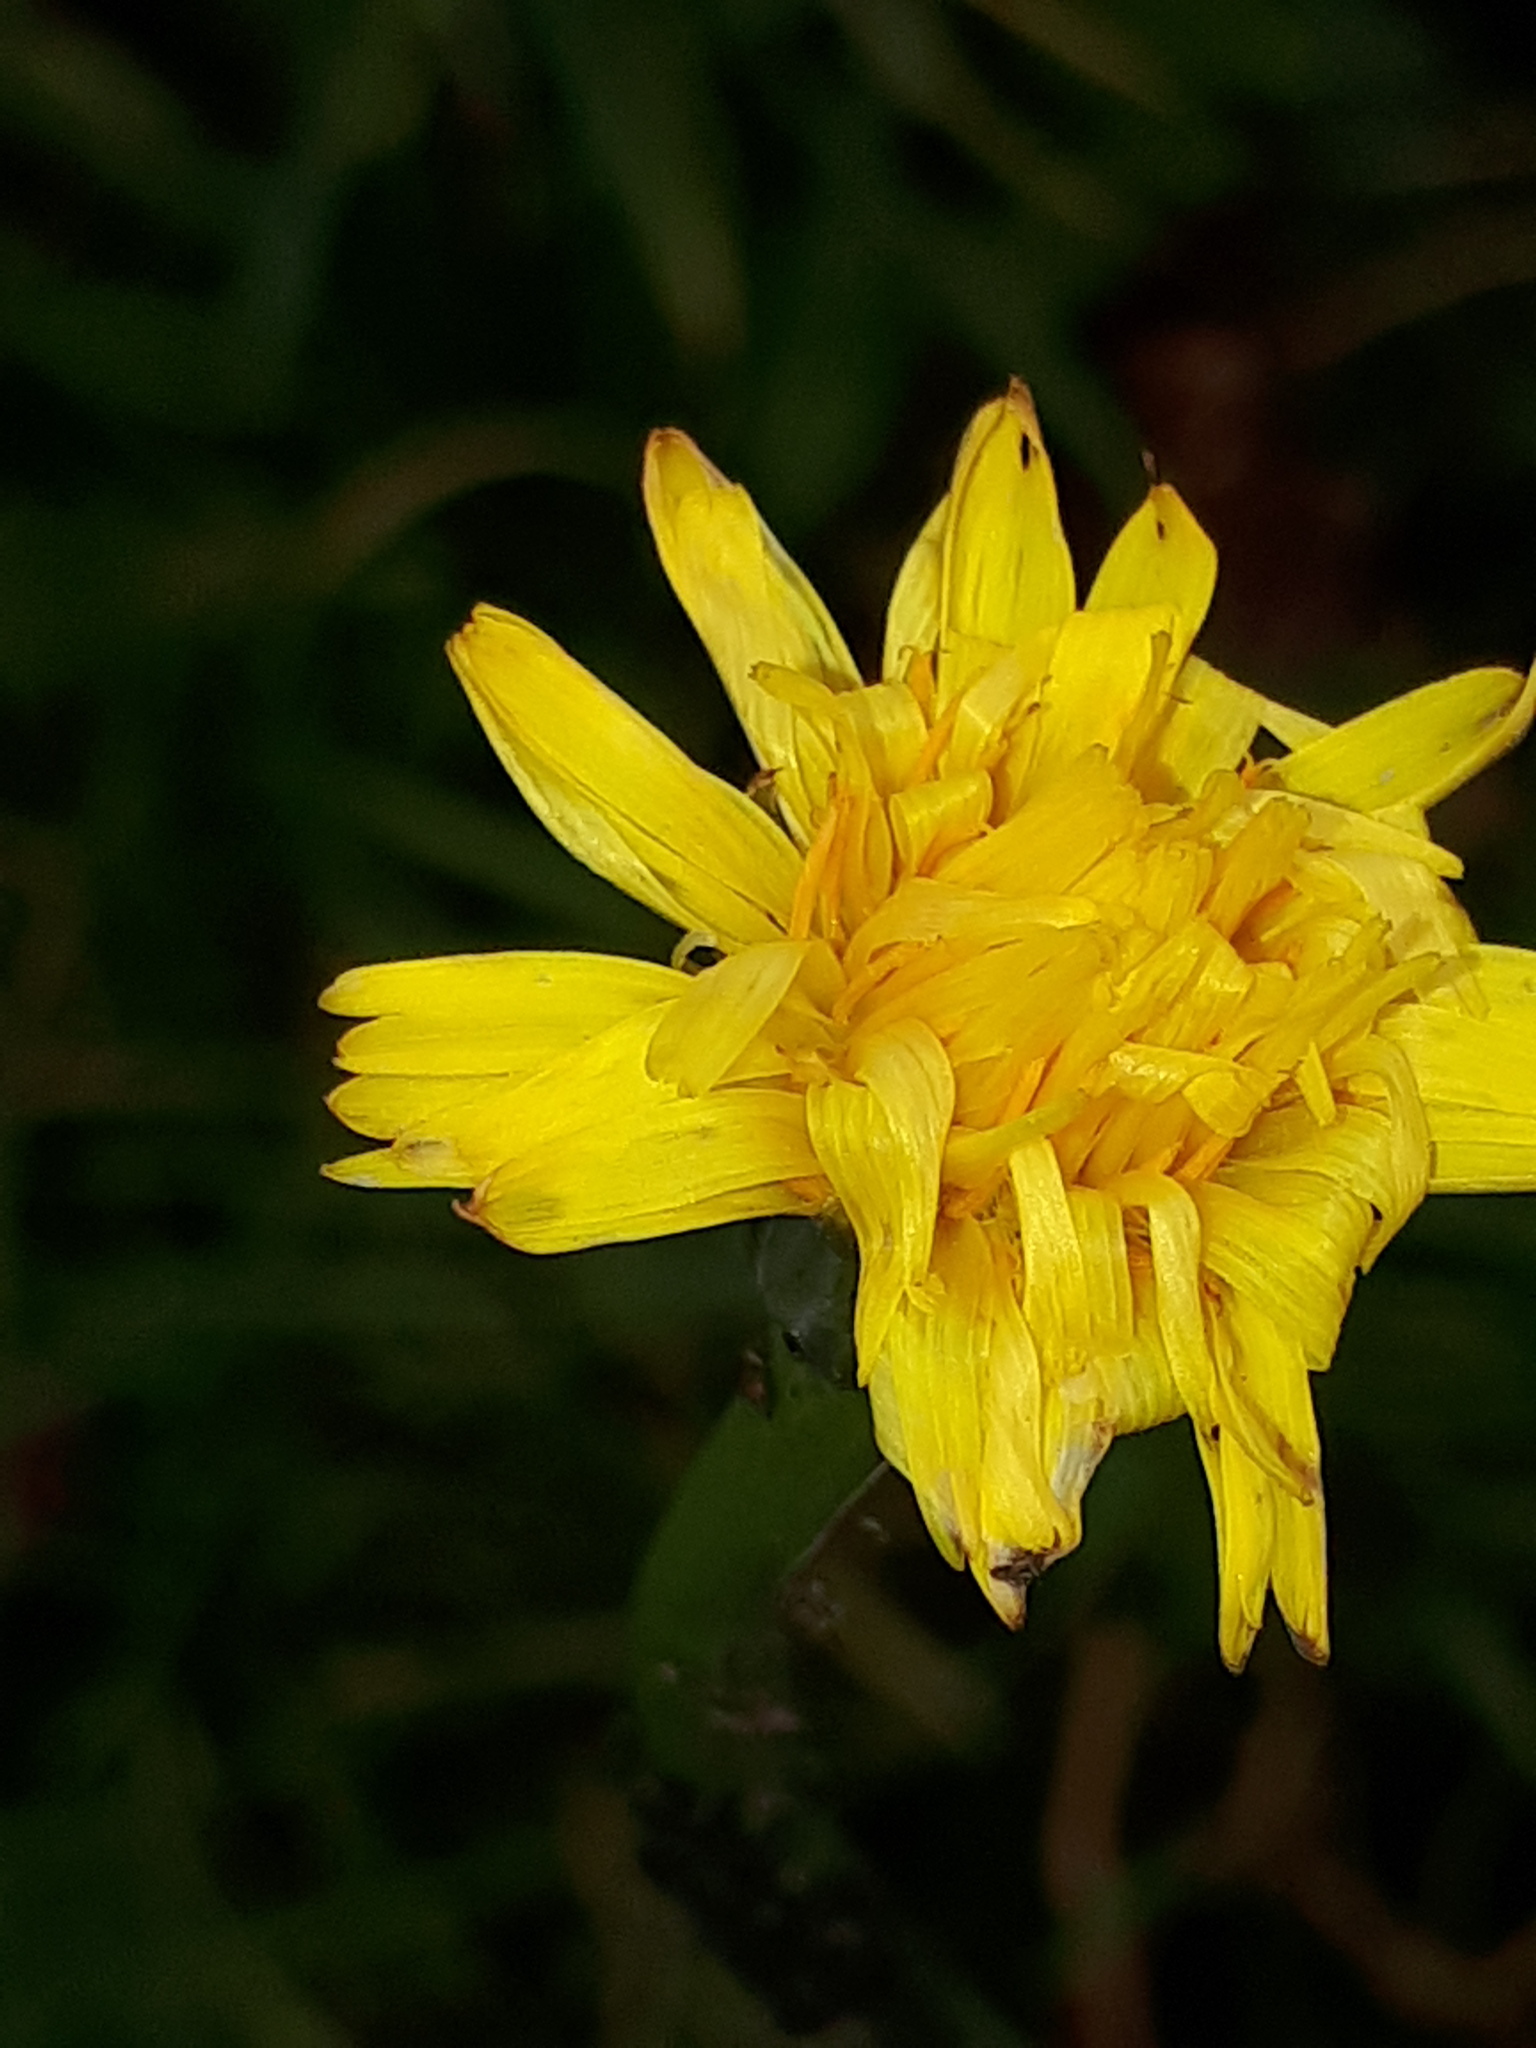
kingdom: Plantae
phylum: Tracheophyta
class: Magnoliopsida
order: Asterales
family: Asteraceae
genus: Hypochaeris
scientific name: Hypochaeris radicata
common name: Flatweed
